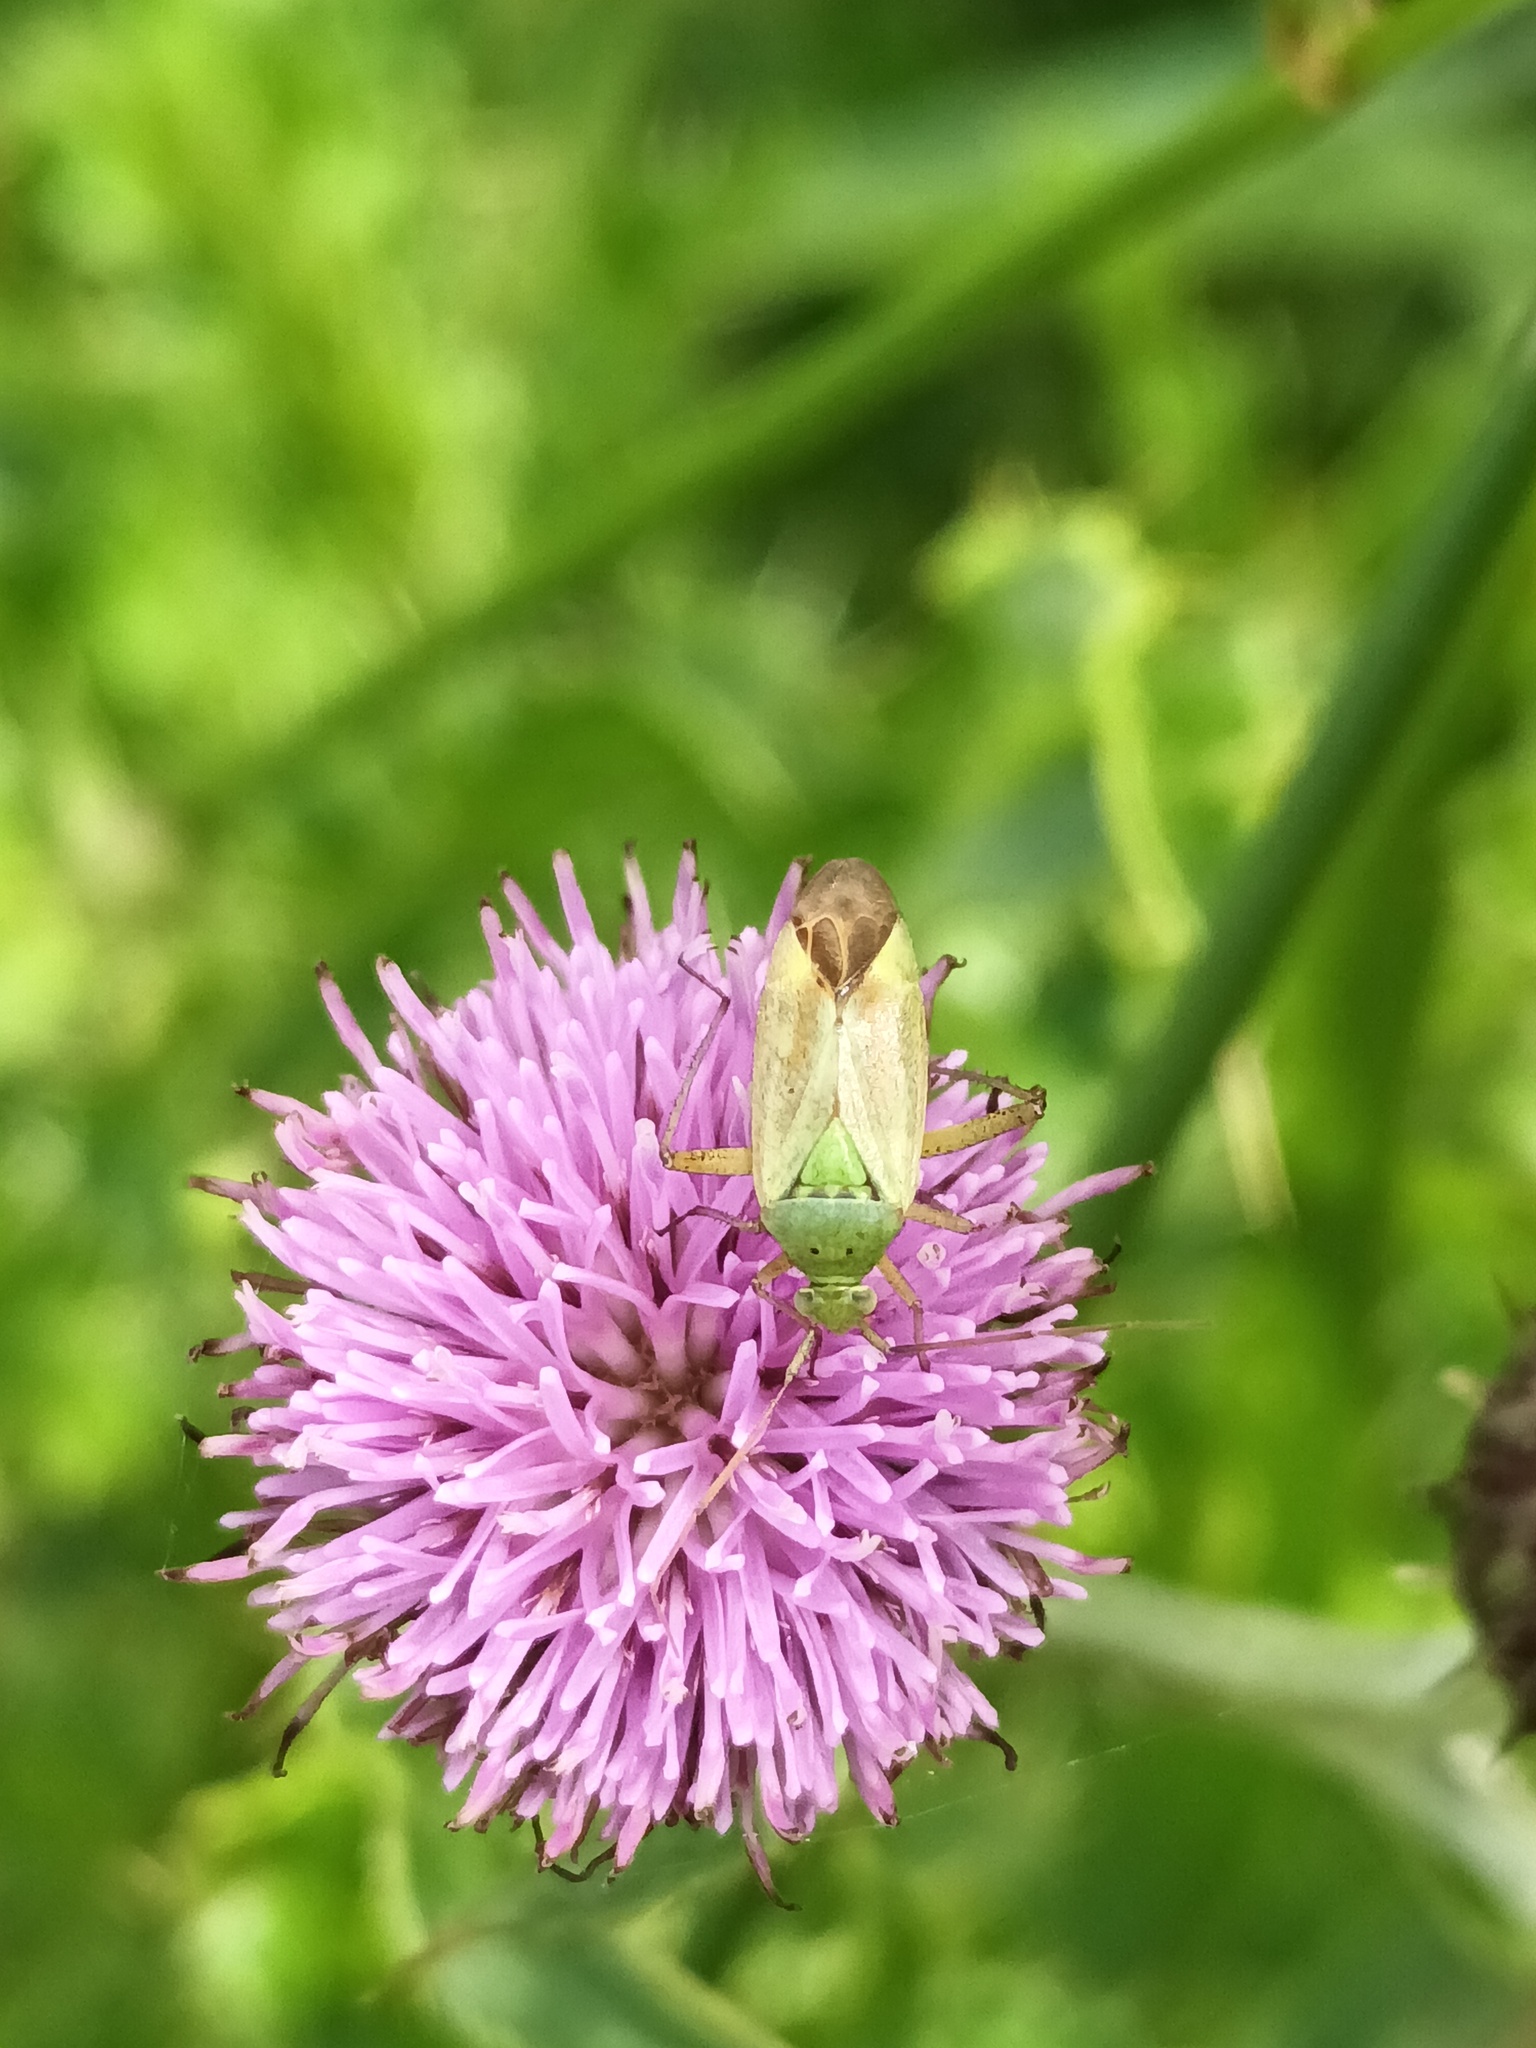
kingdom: Animalia
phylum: Arthropoda
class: Insecta
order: Hemiptera
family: Miridae
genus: Closterotomus
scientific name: Closterotomus norvegicus
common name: Plant bug
